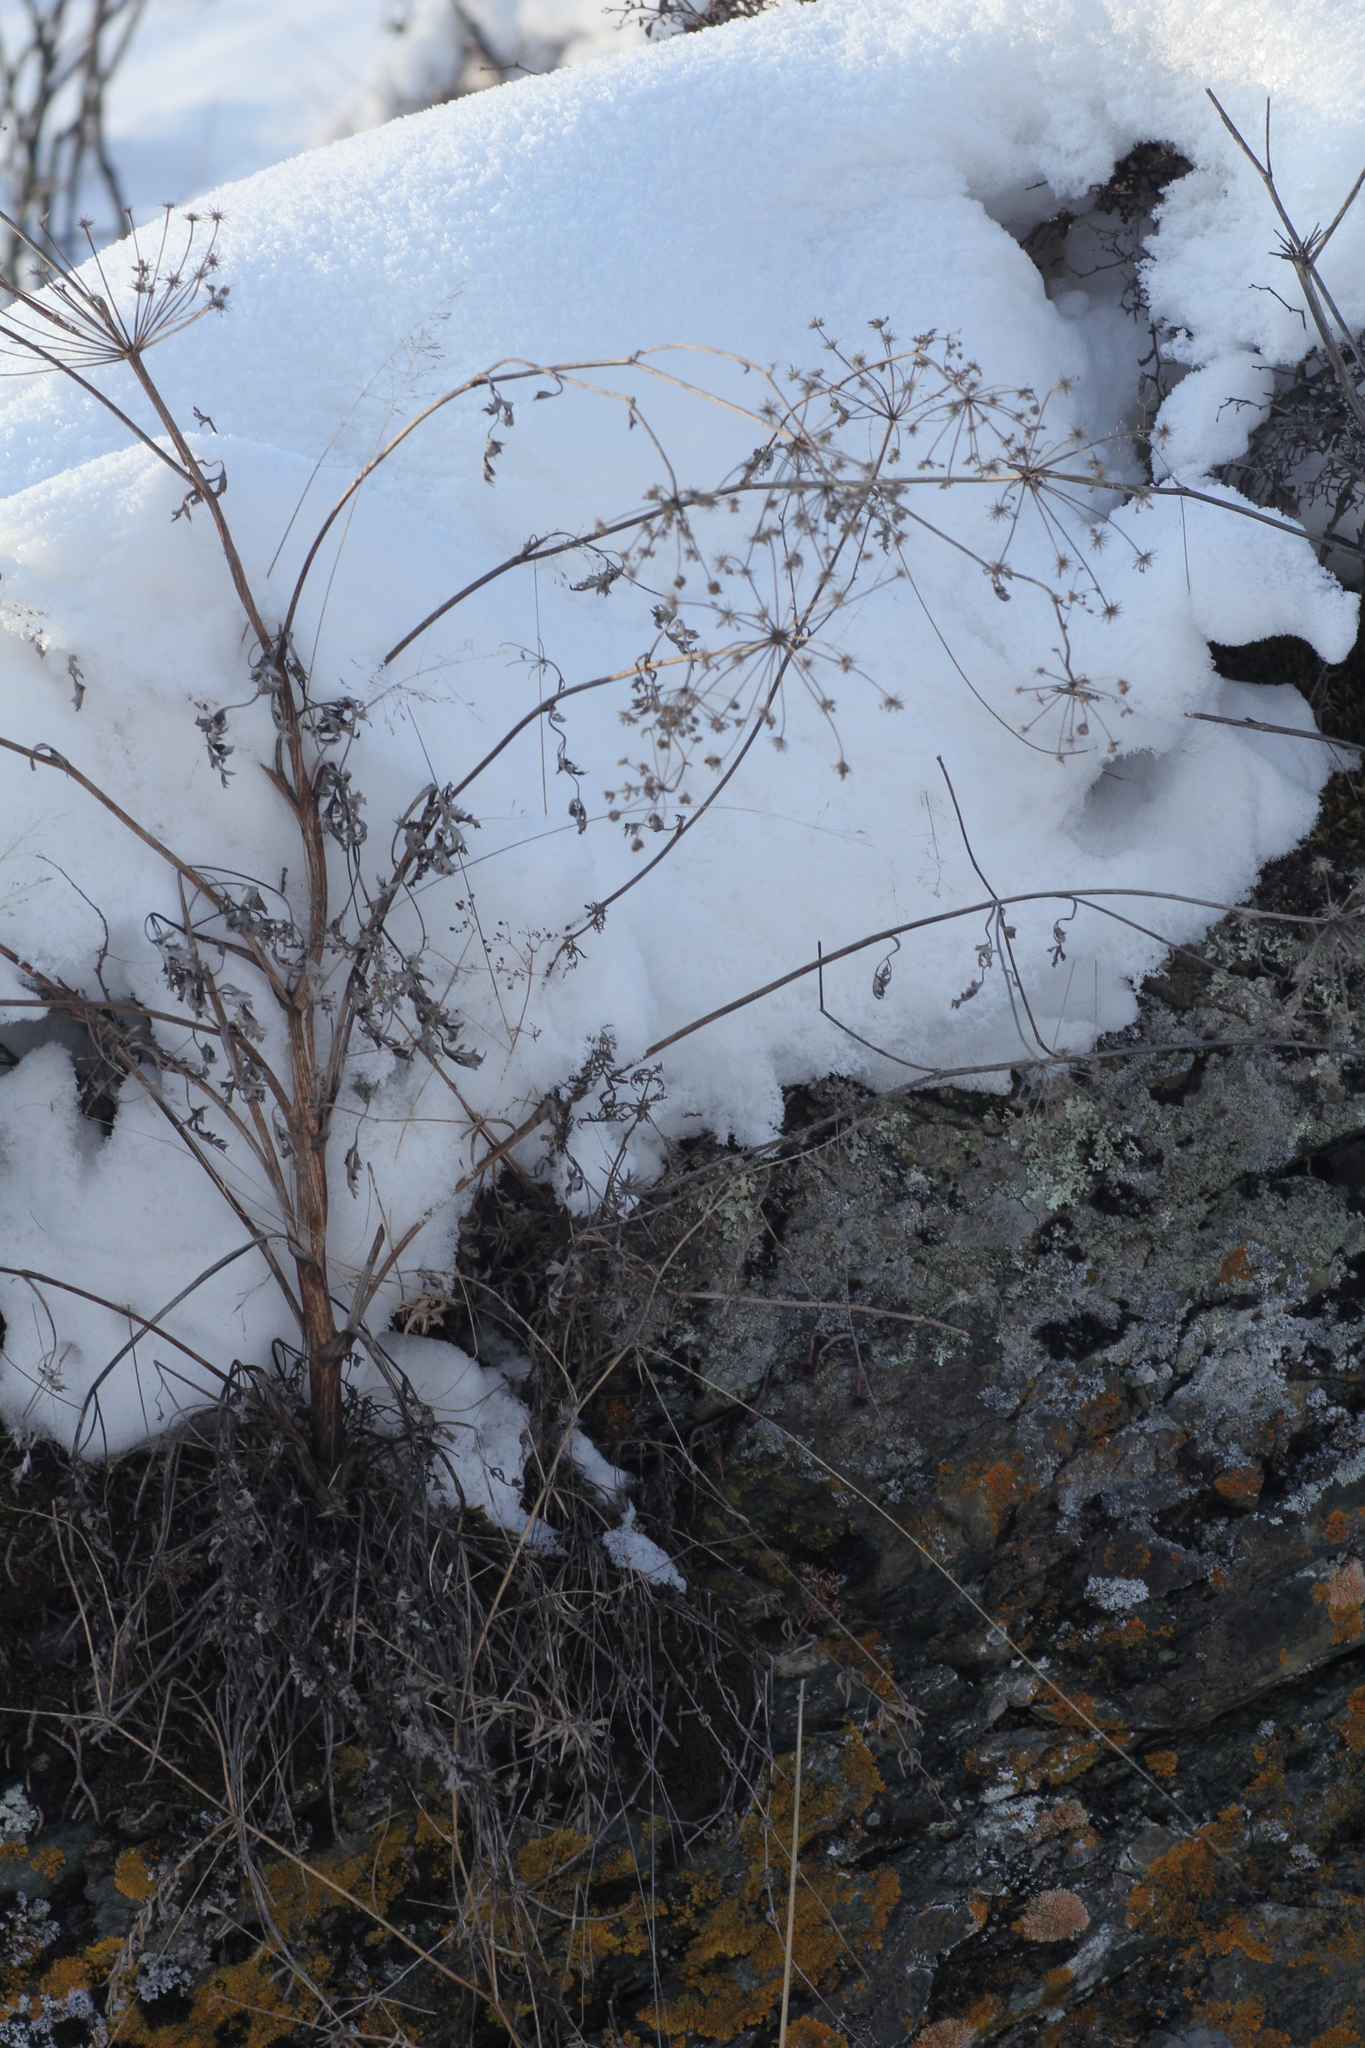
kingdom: Plantae
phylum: Tracheophyta
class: Magnoliopsida
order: Apiales
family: Apiaceae
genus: Kitagawia
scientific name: Kitagawia baicalensis
